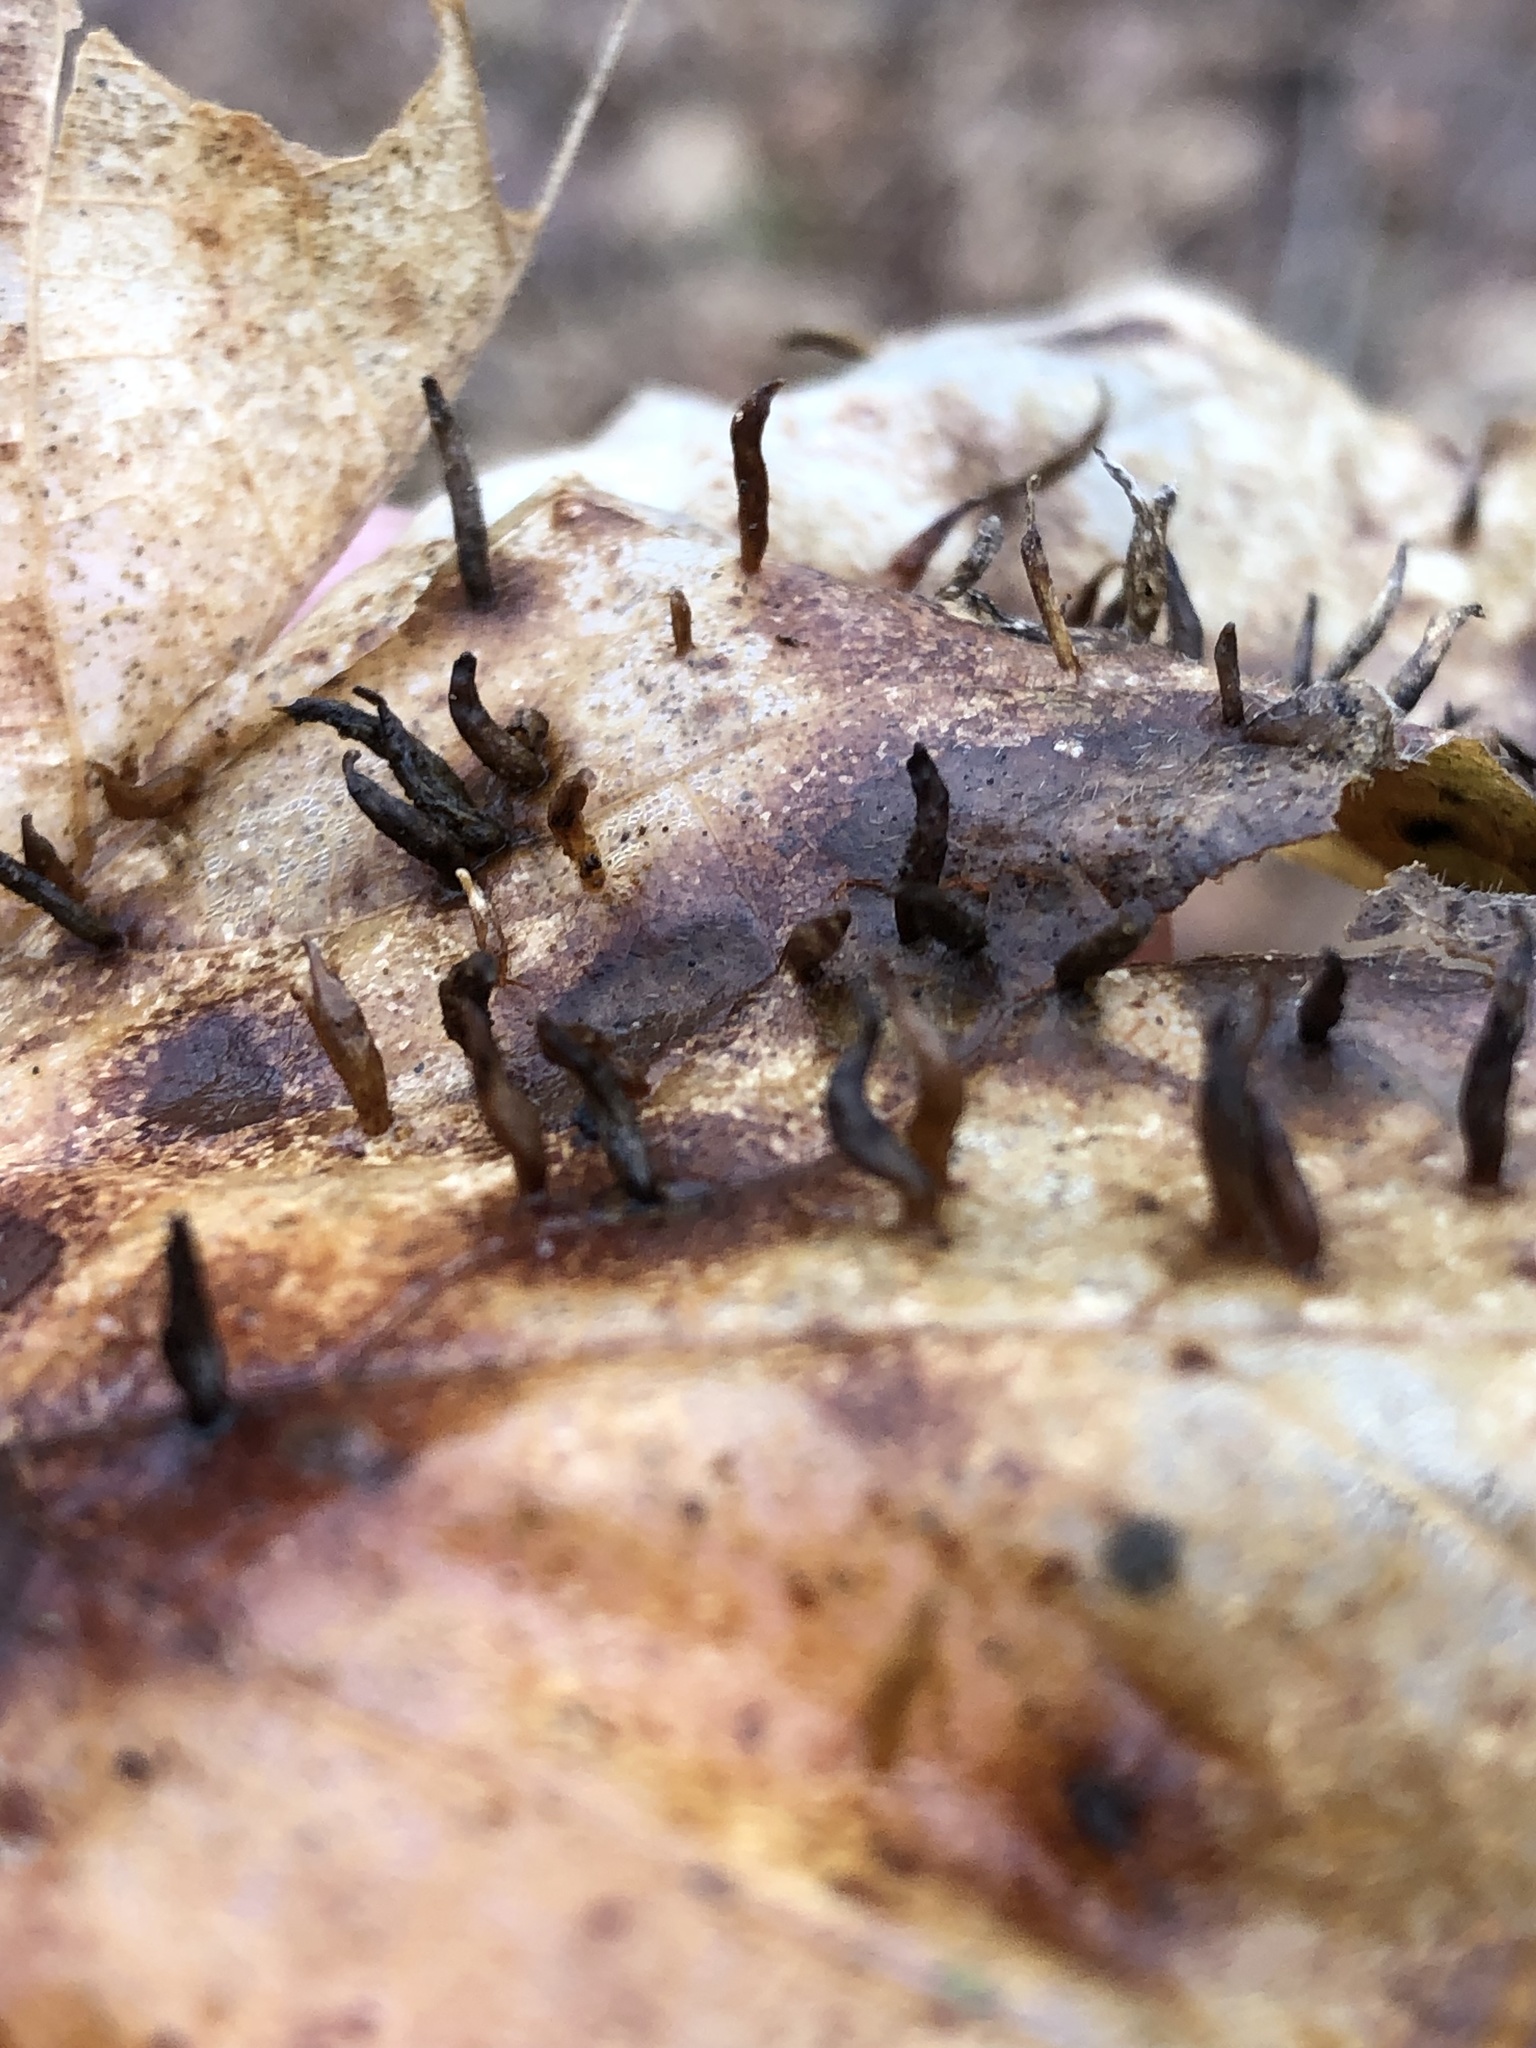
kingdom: Animalia
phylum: Arthropoda
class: Arachnida
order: Trombidiformes
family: Eriophyidae
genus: Vasates
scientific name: Vasates aceriscrumena
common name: Maple spindle gall mite
